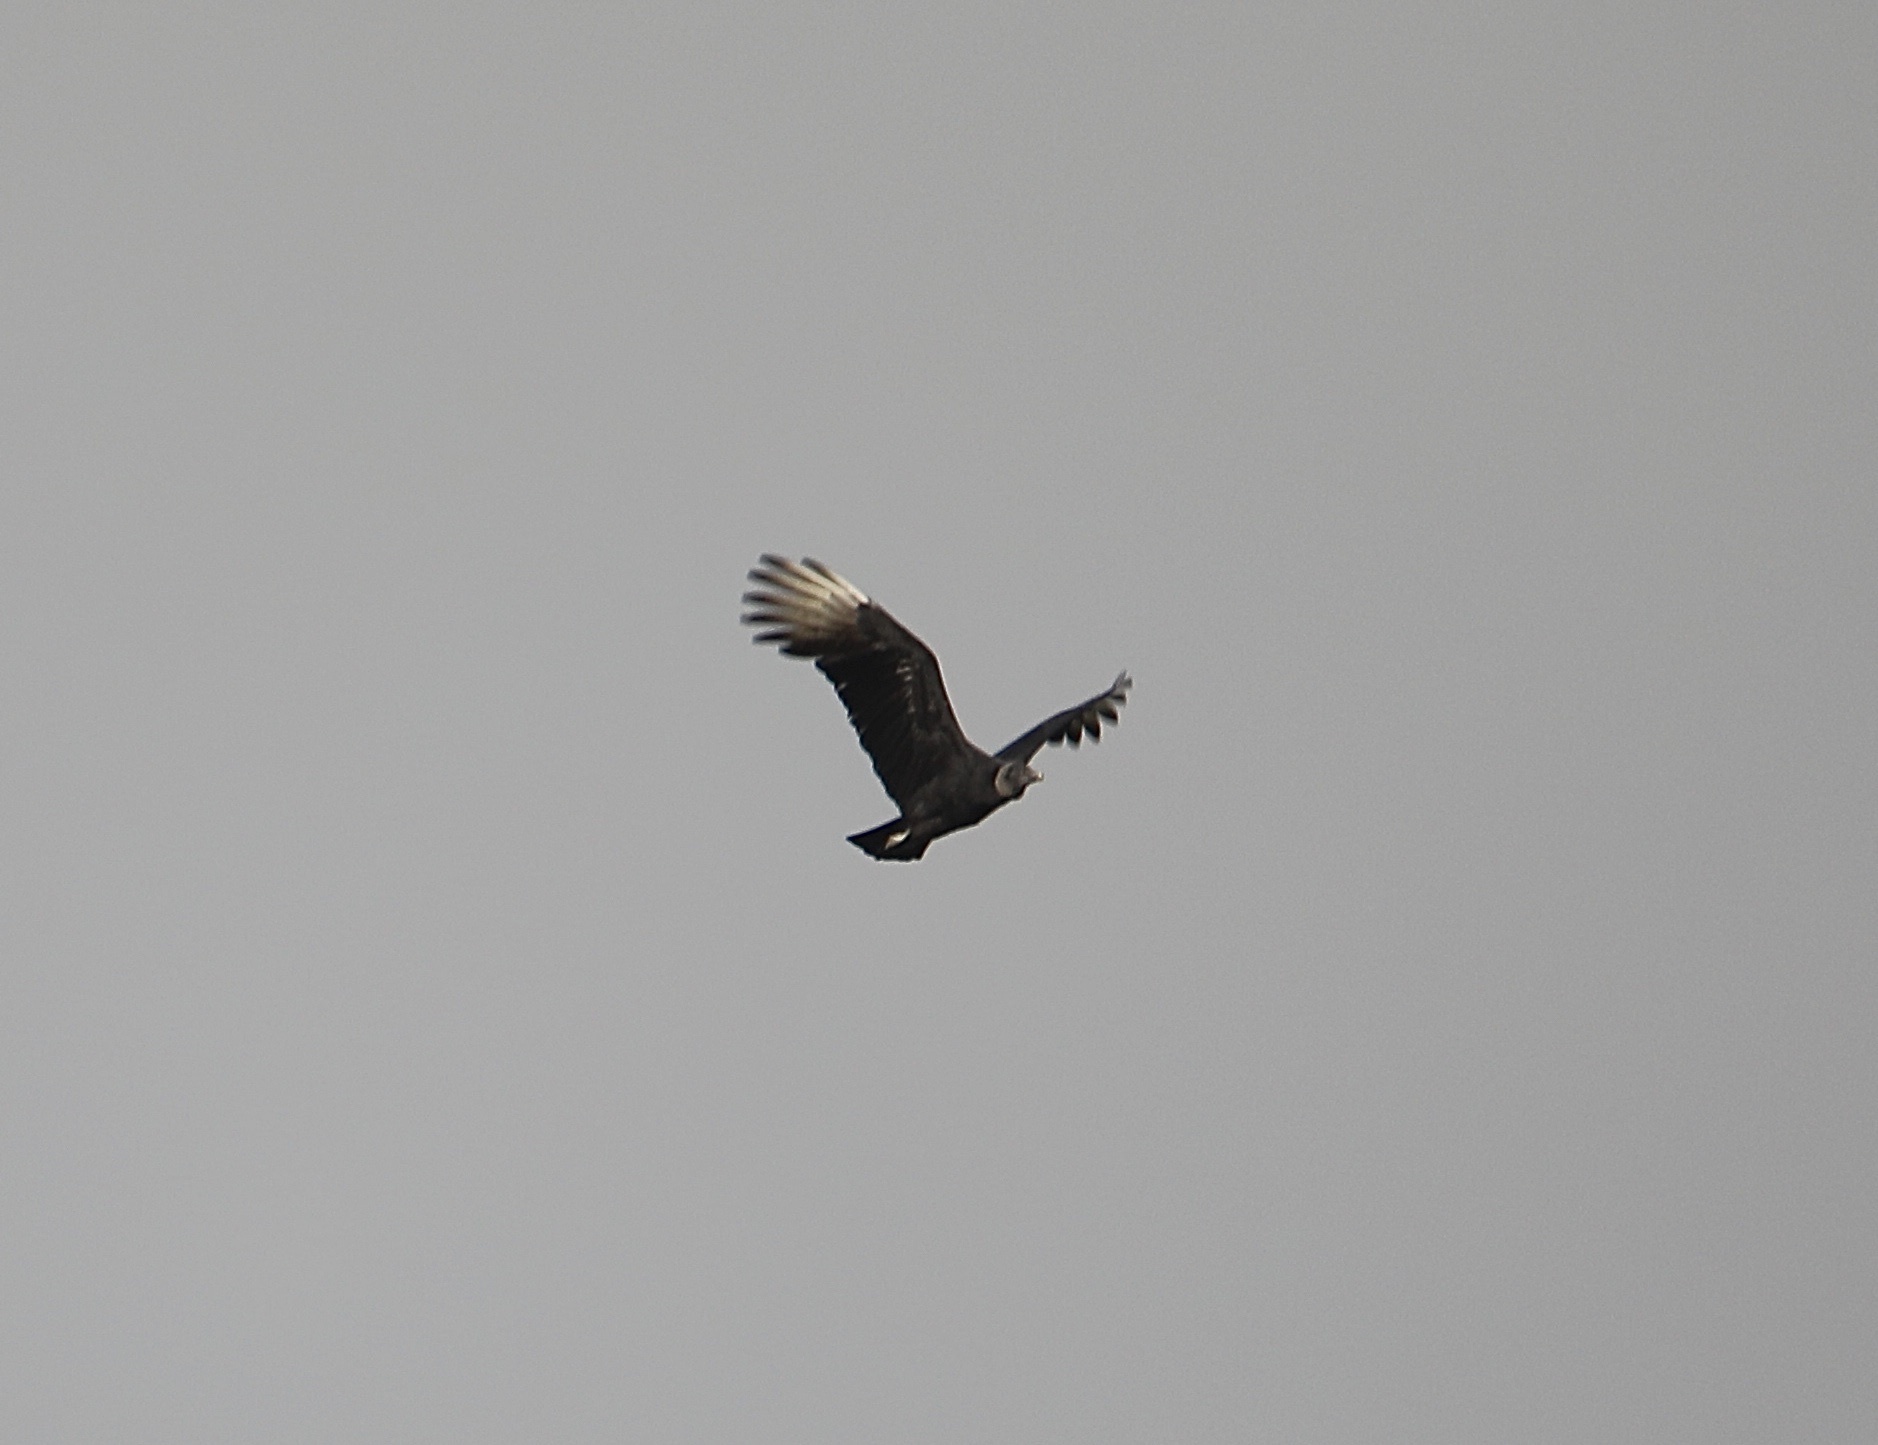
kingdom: Animalia
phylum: Chordata
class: Aves
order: Accipitriformes
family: Cathartidae
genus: Coragyps
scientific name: Coragyps atratus
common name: Black vulture
